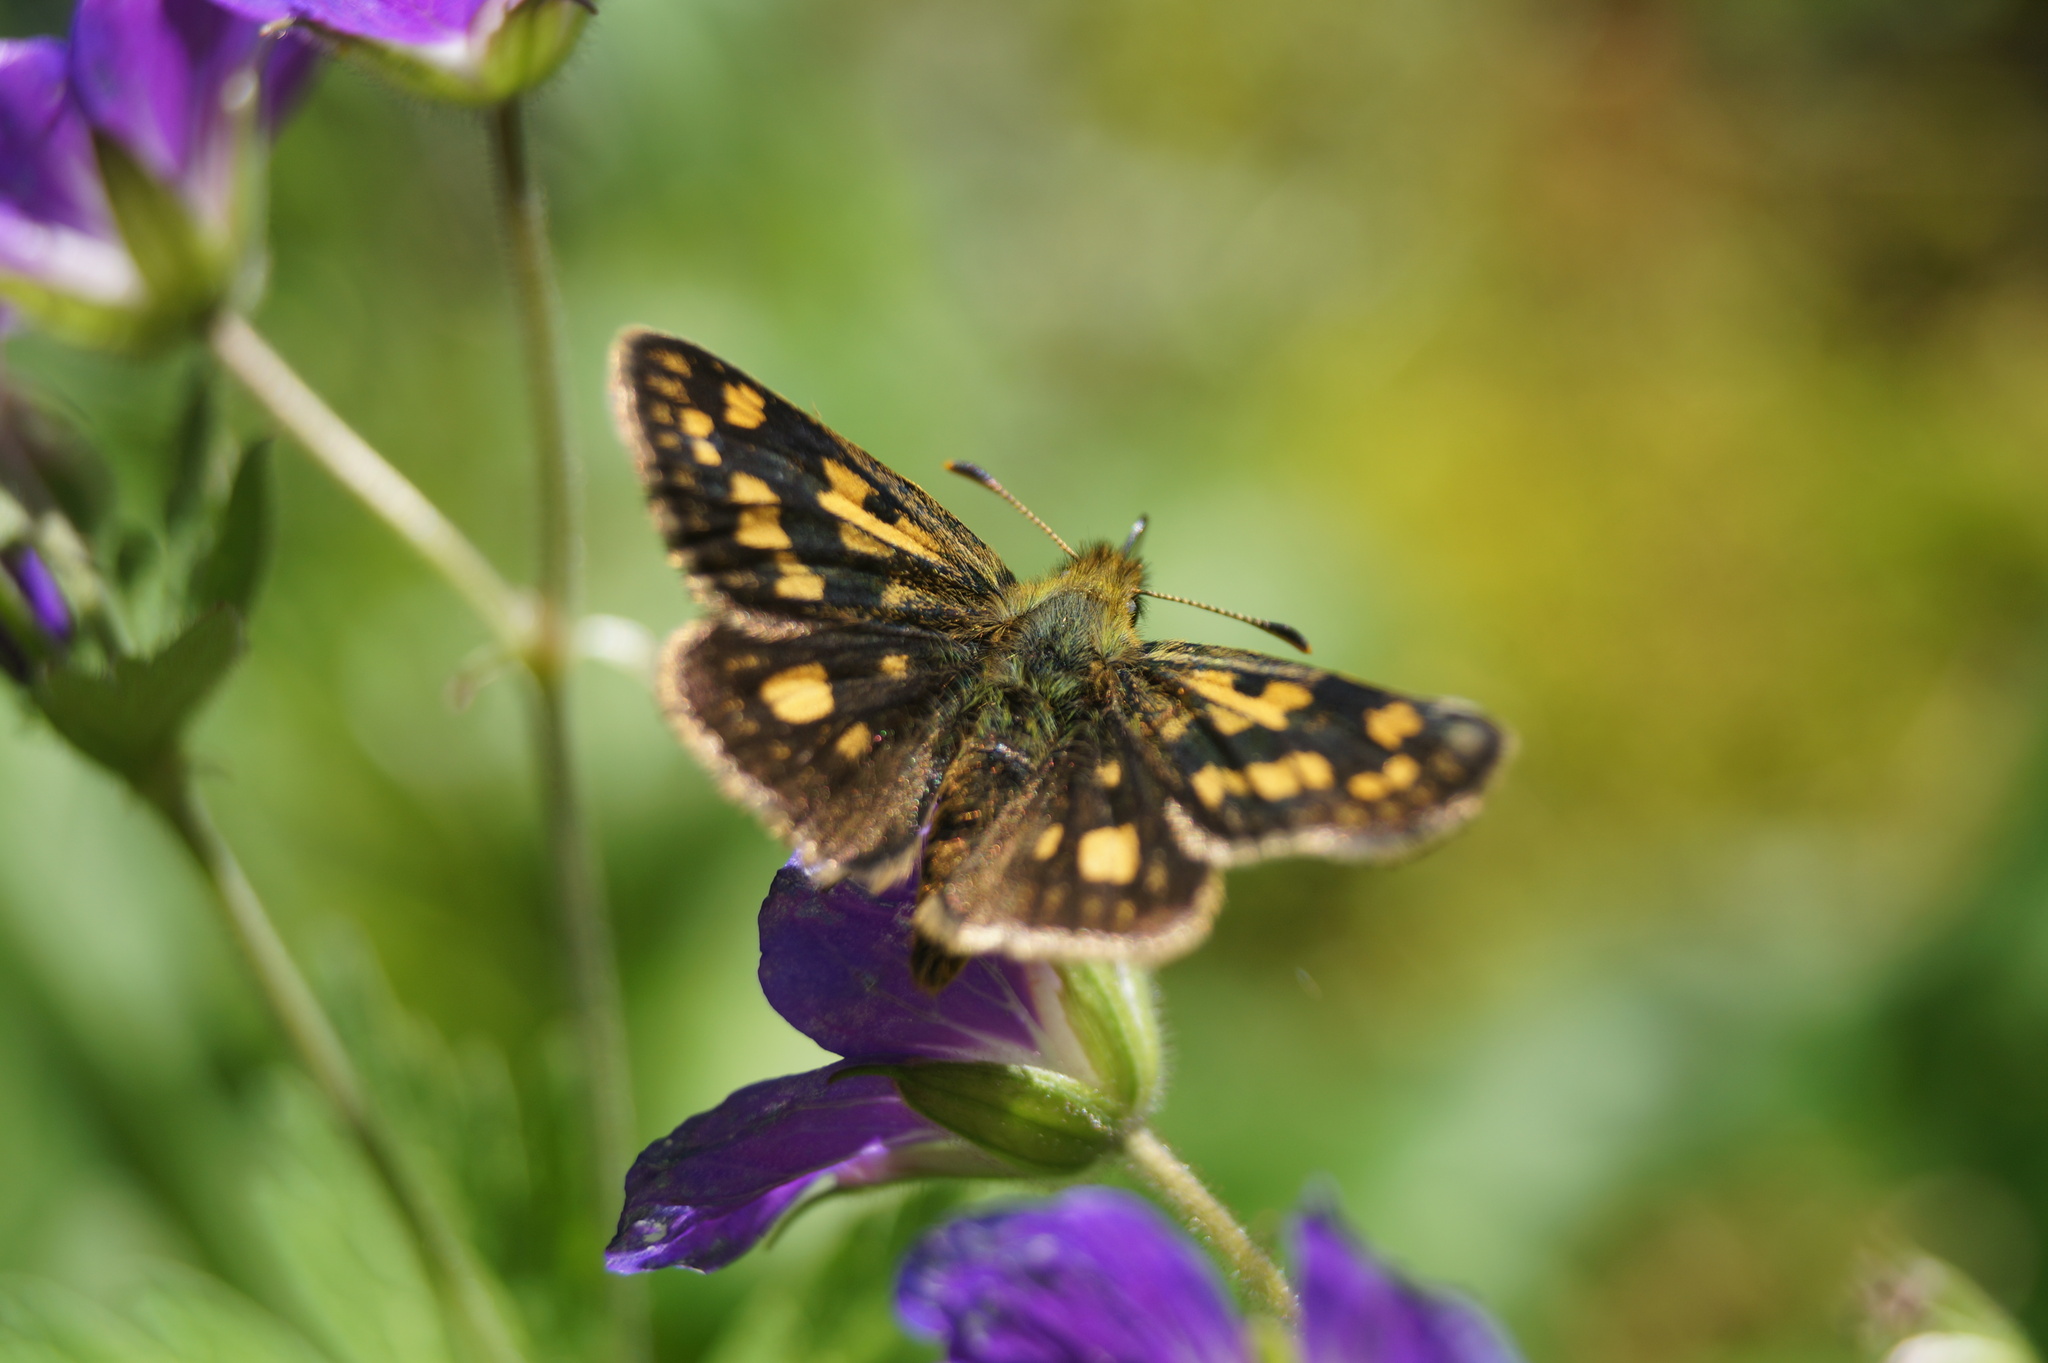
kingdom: Animalia
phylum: Arthropoda
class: Insecta
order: Lepidoptera
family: Hesperiidae
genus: Carterocephalus
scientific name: Carterocephalus palaemon
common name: Chequered skipper
